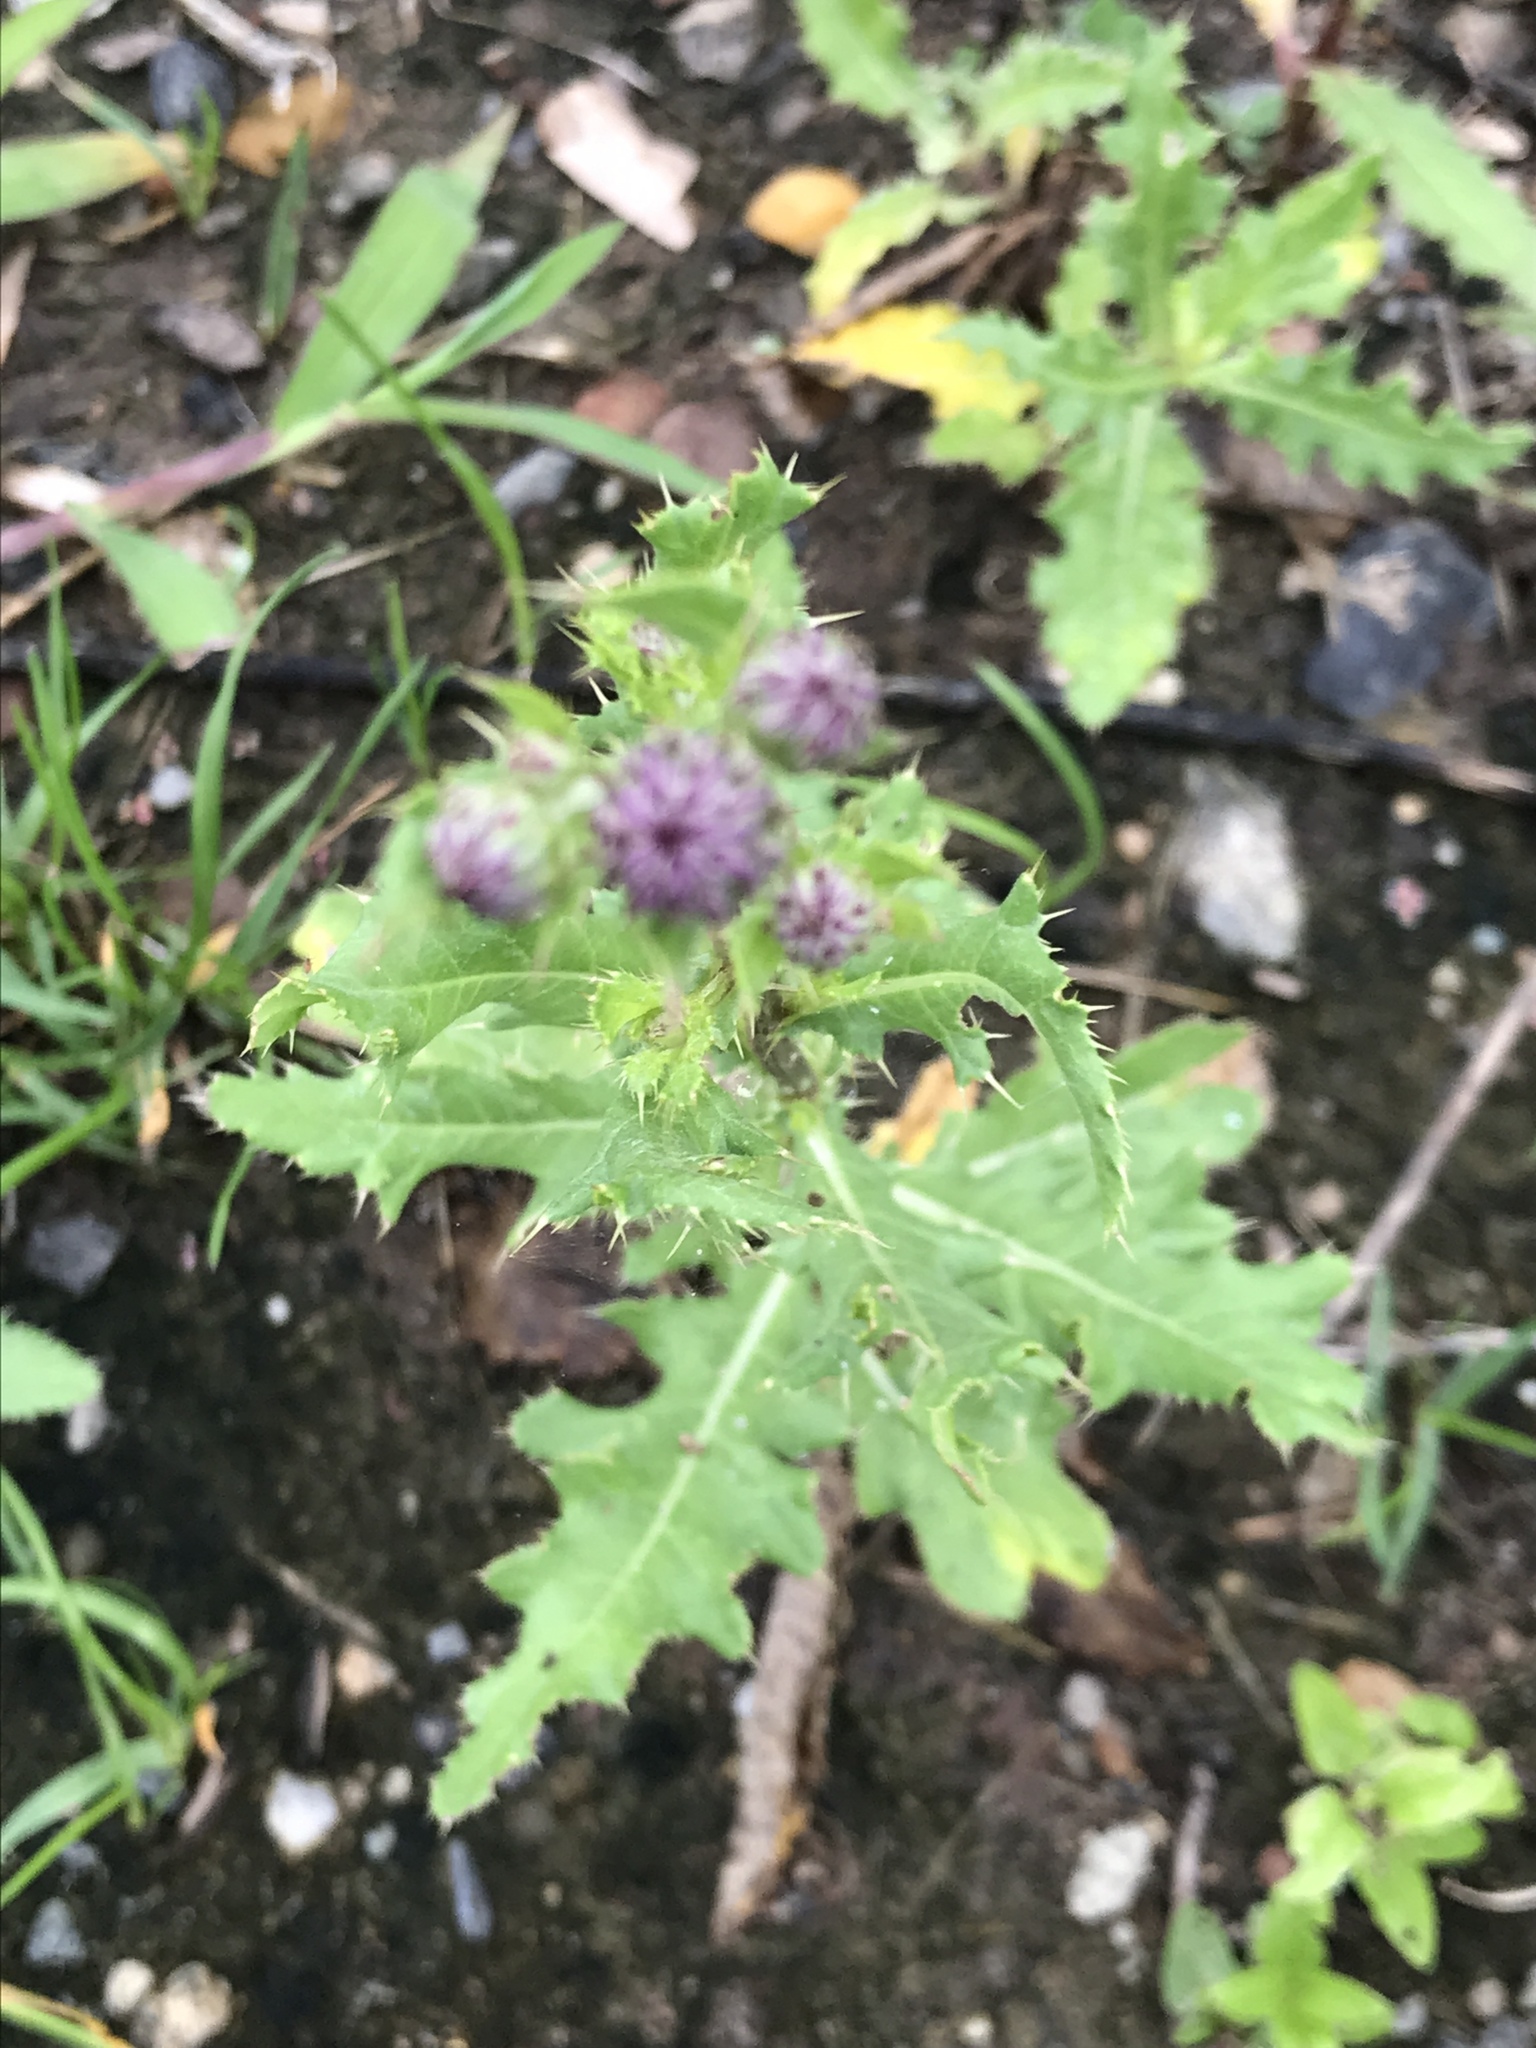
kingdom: Plantae
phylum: Tracheophyta
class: Magnoliopsida
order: Asterales
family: Asteraceae
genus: Cirsium
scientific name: Cirsium arvense
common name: Creeping thistle
